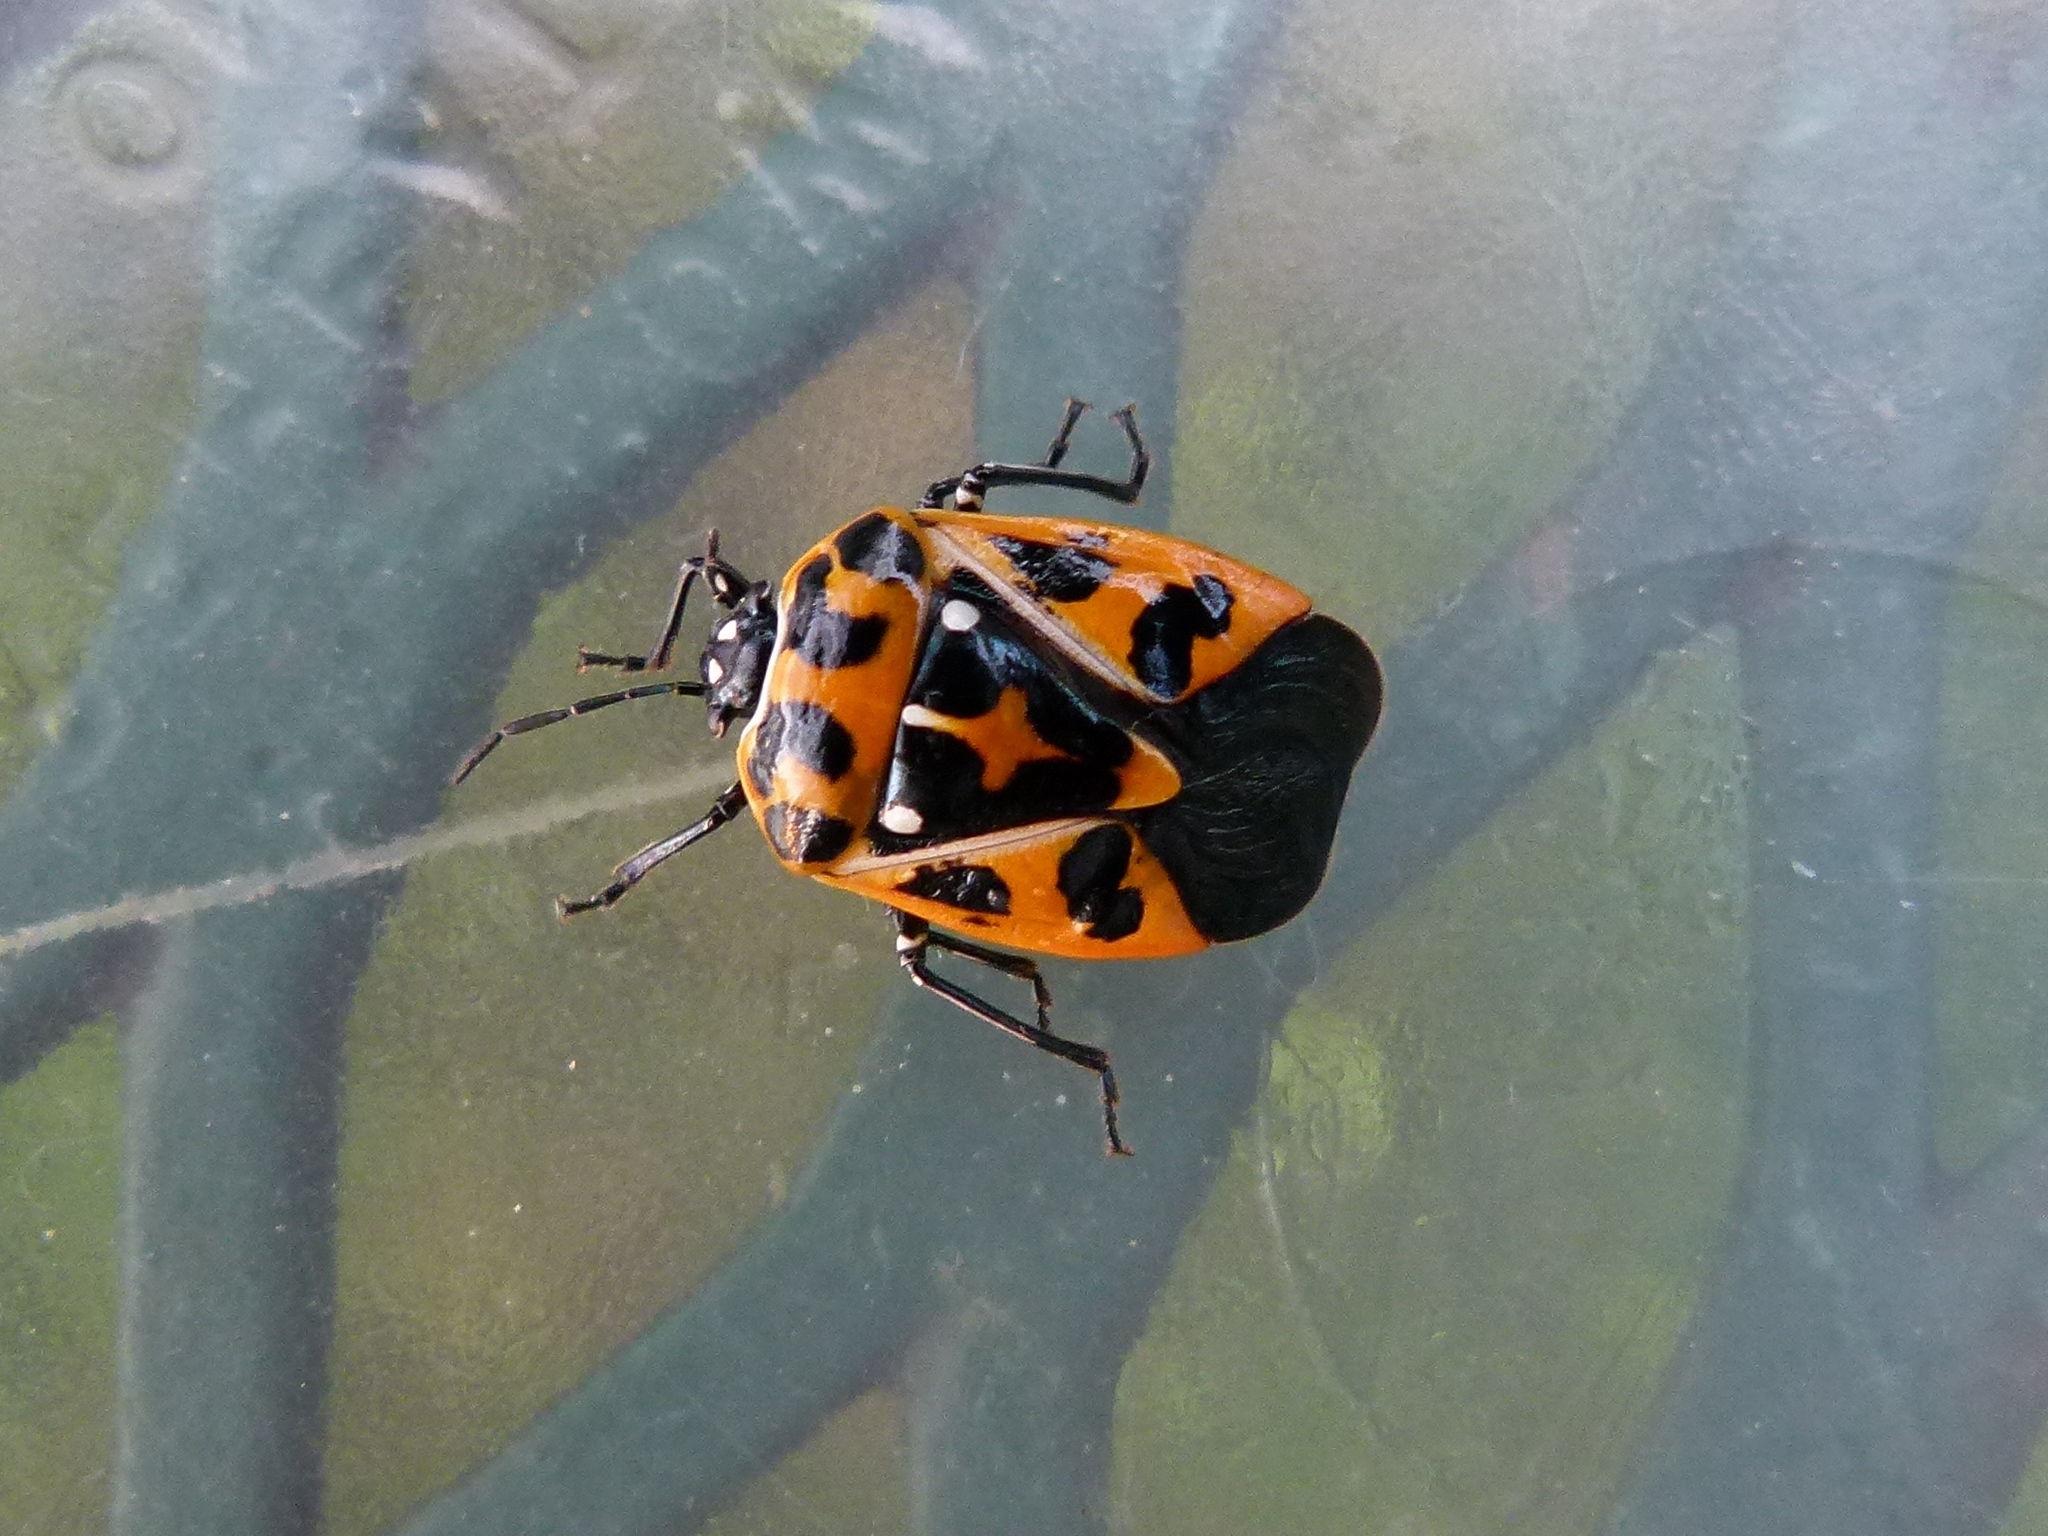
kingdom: Animalia
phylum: Arthropoda
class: Insecta
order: Hemiptera
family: Pentatomidae
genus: Murgantia
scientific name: Murgantia histrionica
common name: Harlequin bug
